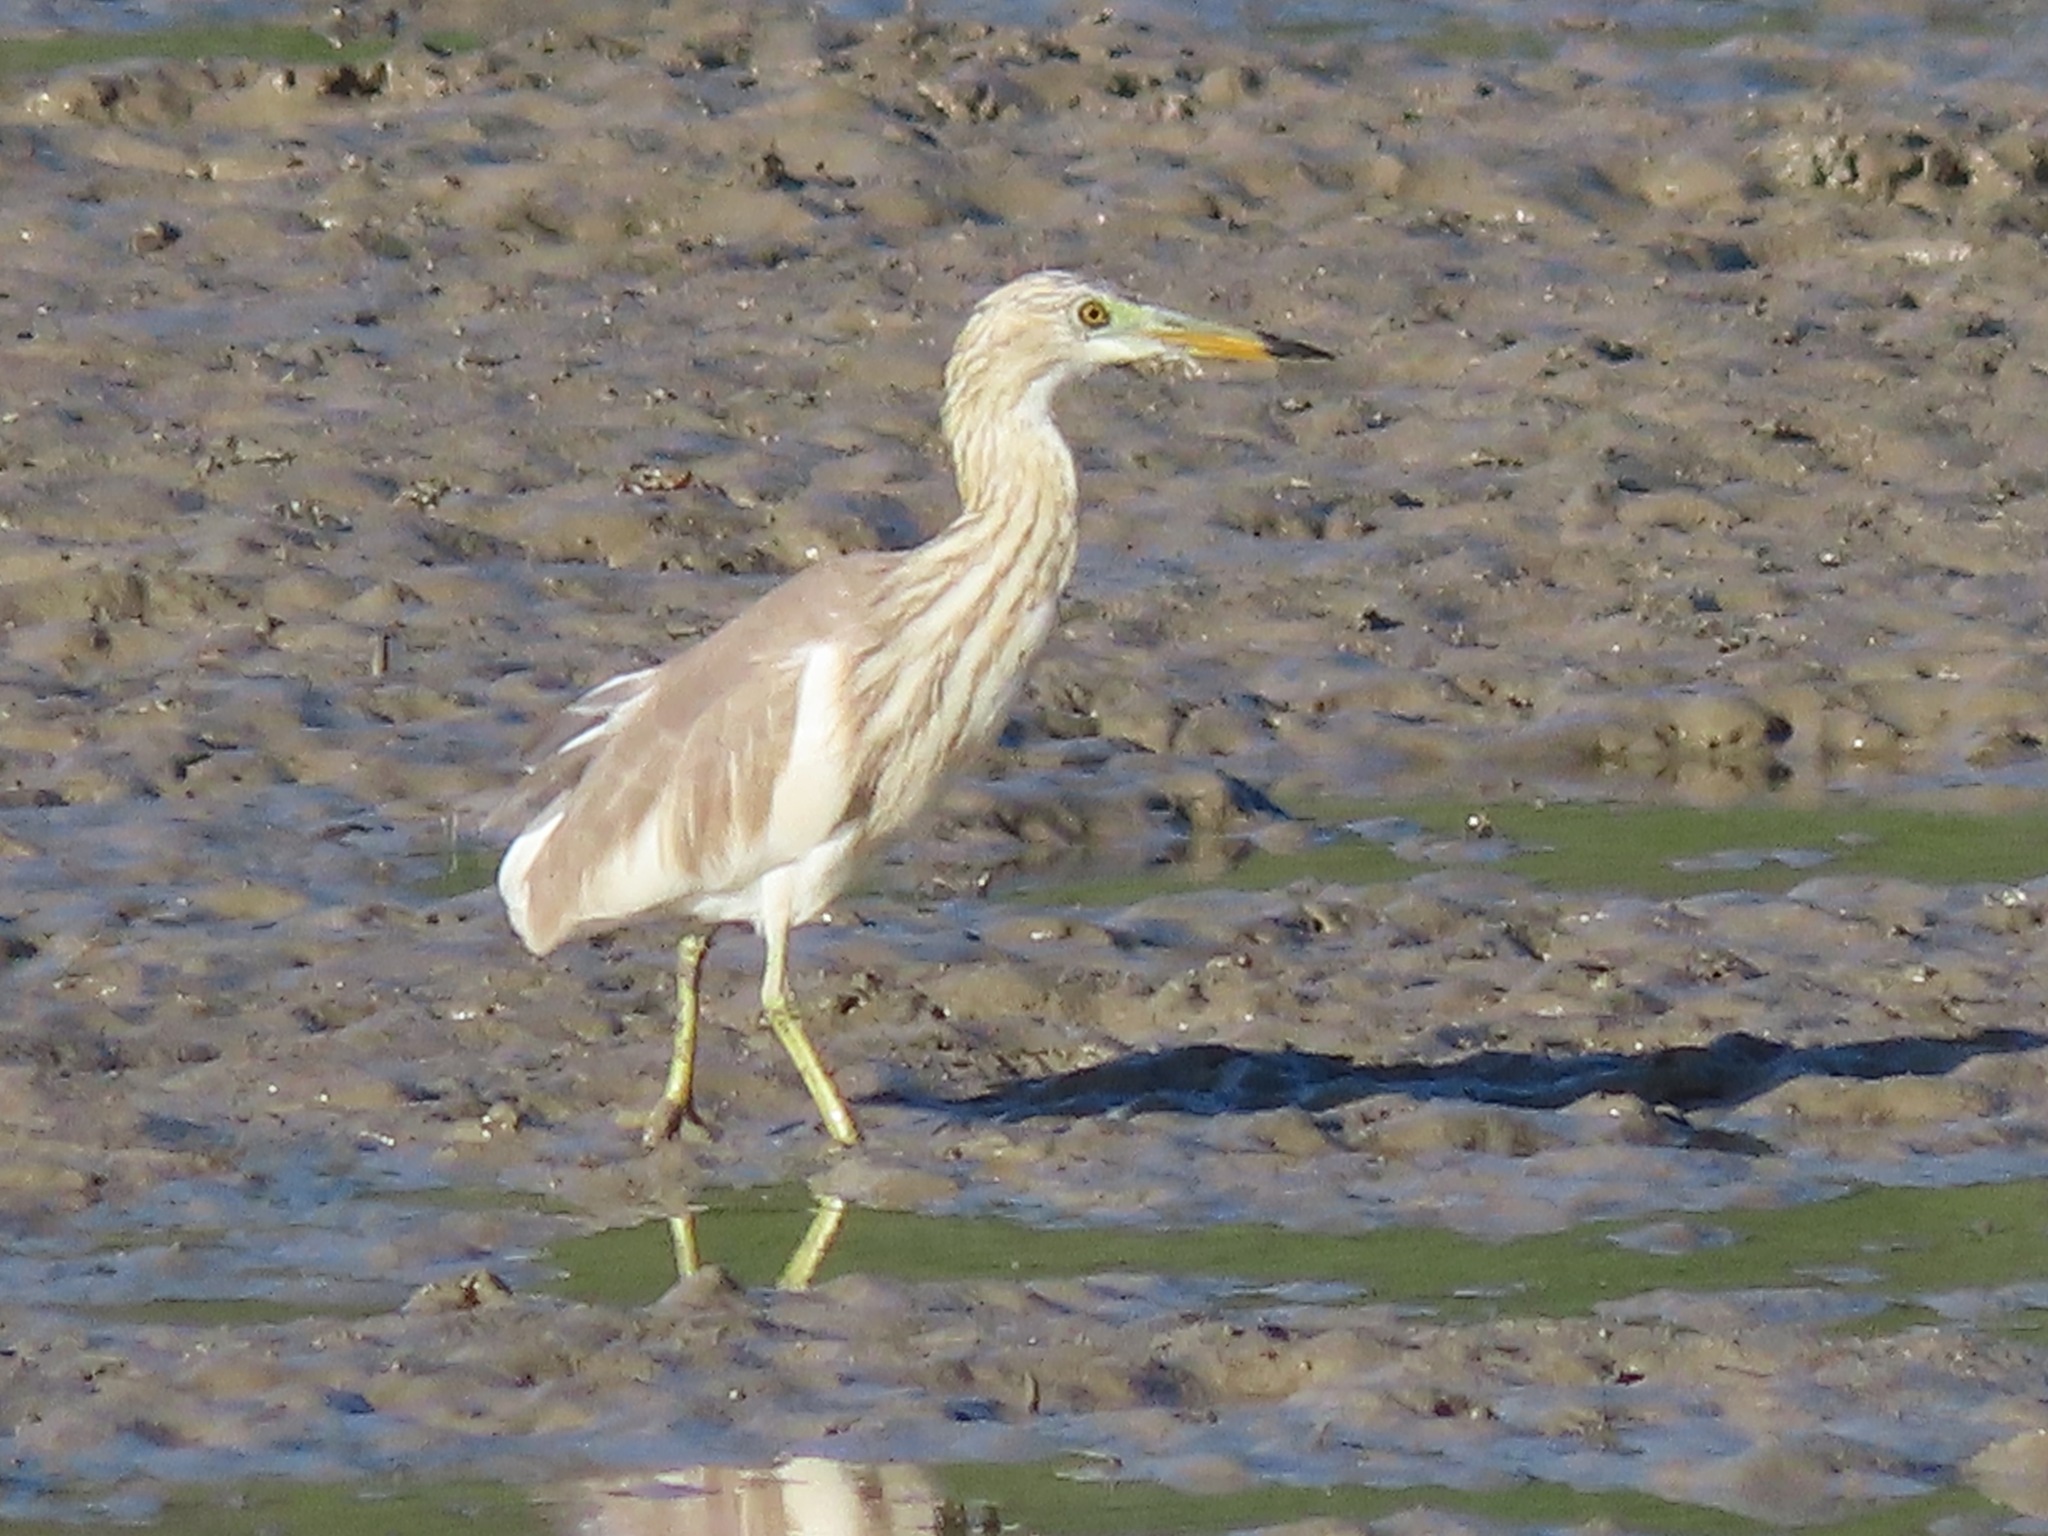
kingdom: Animalia
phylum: Chordata
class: Aves
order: Pelecaniformes
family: Ardeidae
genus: Ardeola
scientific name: Ardeola
